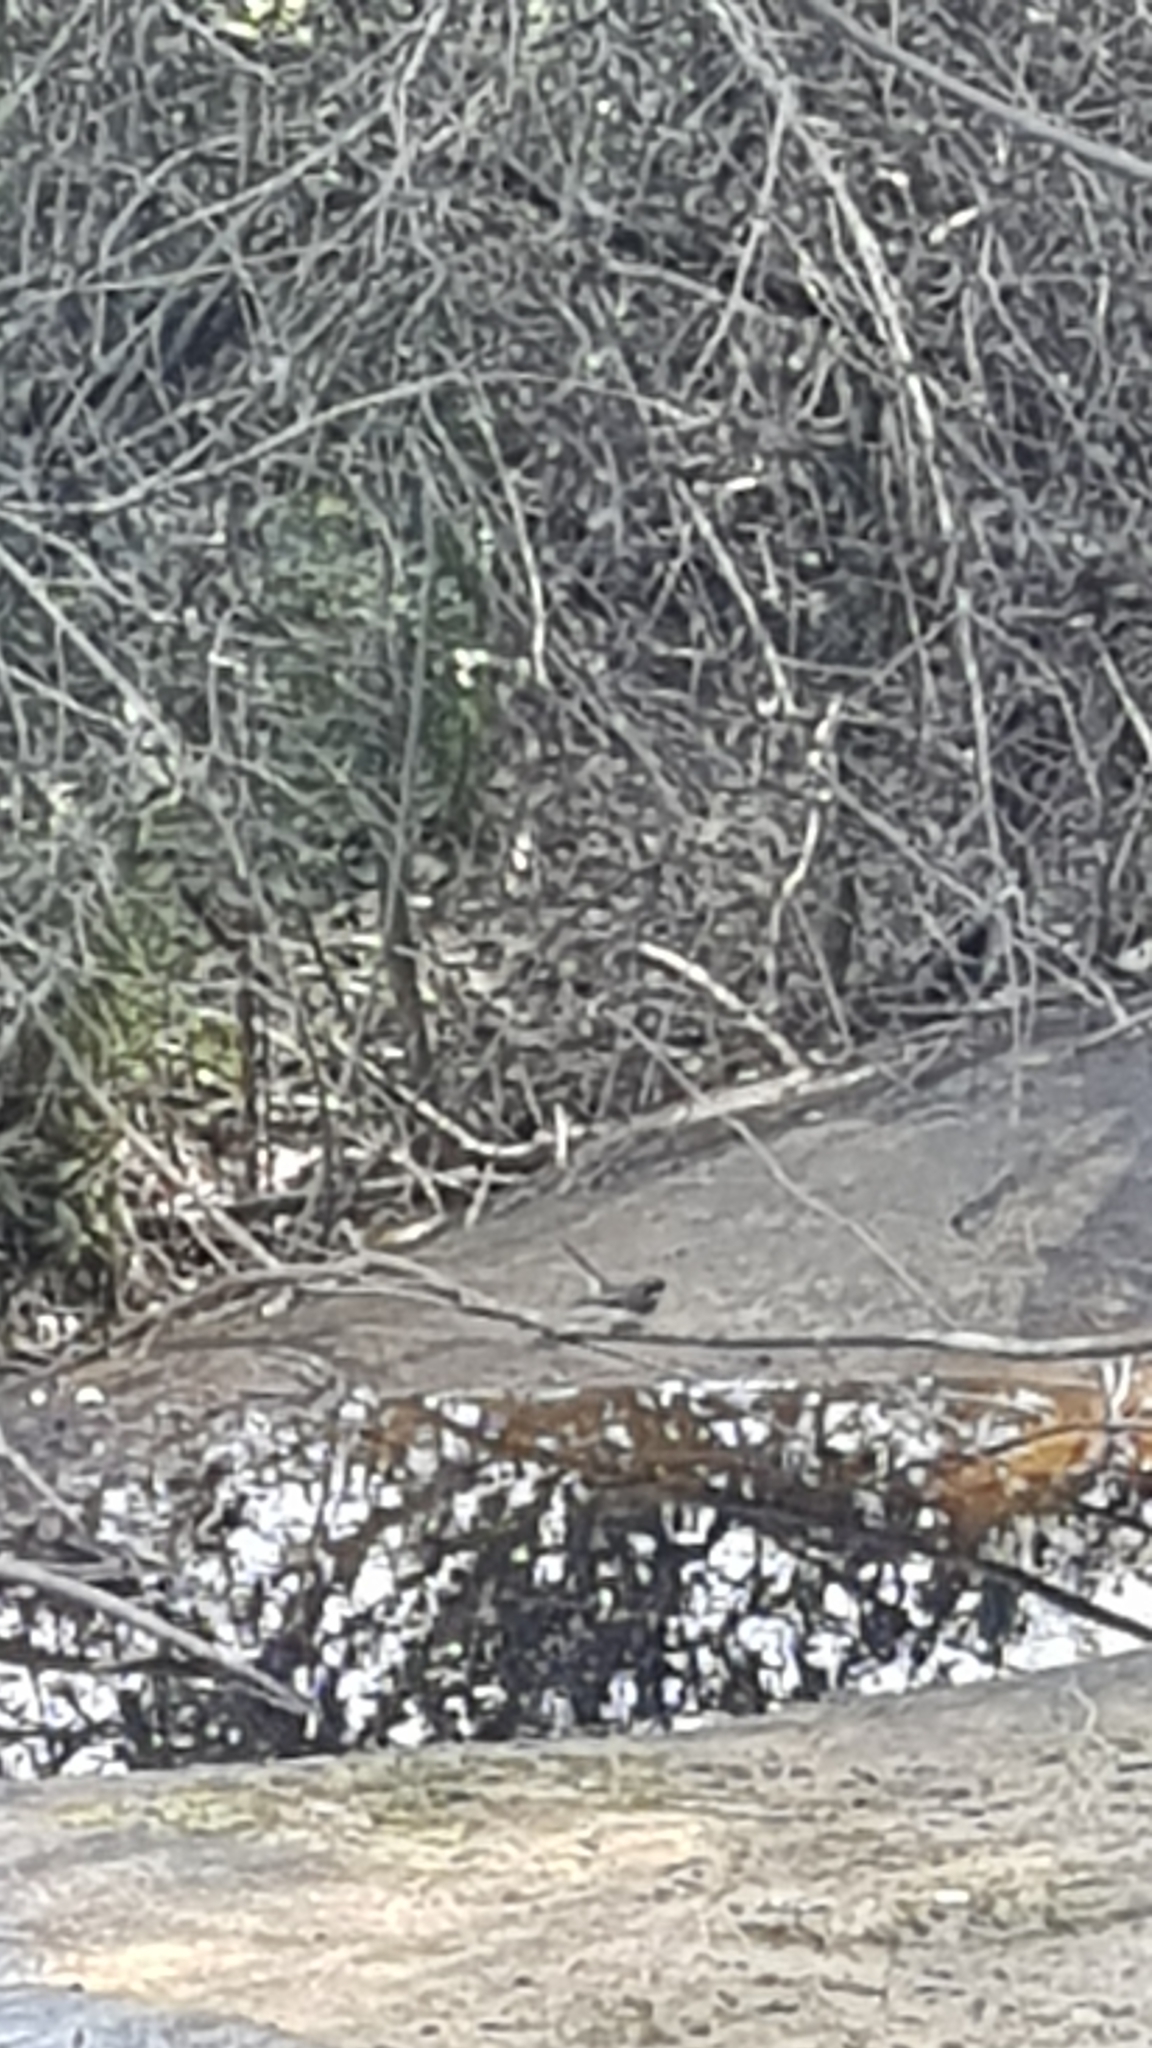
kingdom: Animalia
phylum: Chordata
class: Aves
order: Passeriformes
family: Rhipiduridae
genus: Rhipidura
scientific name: Rhipidura albiscapa
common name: Grey fantail
